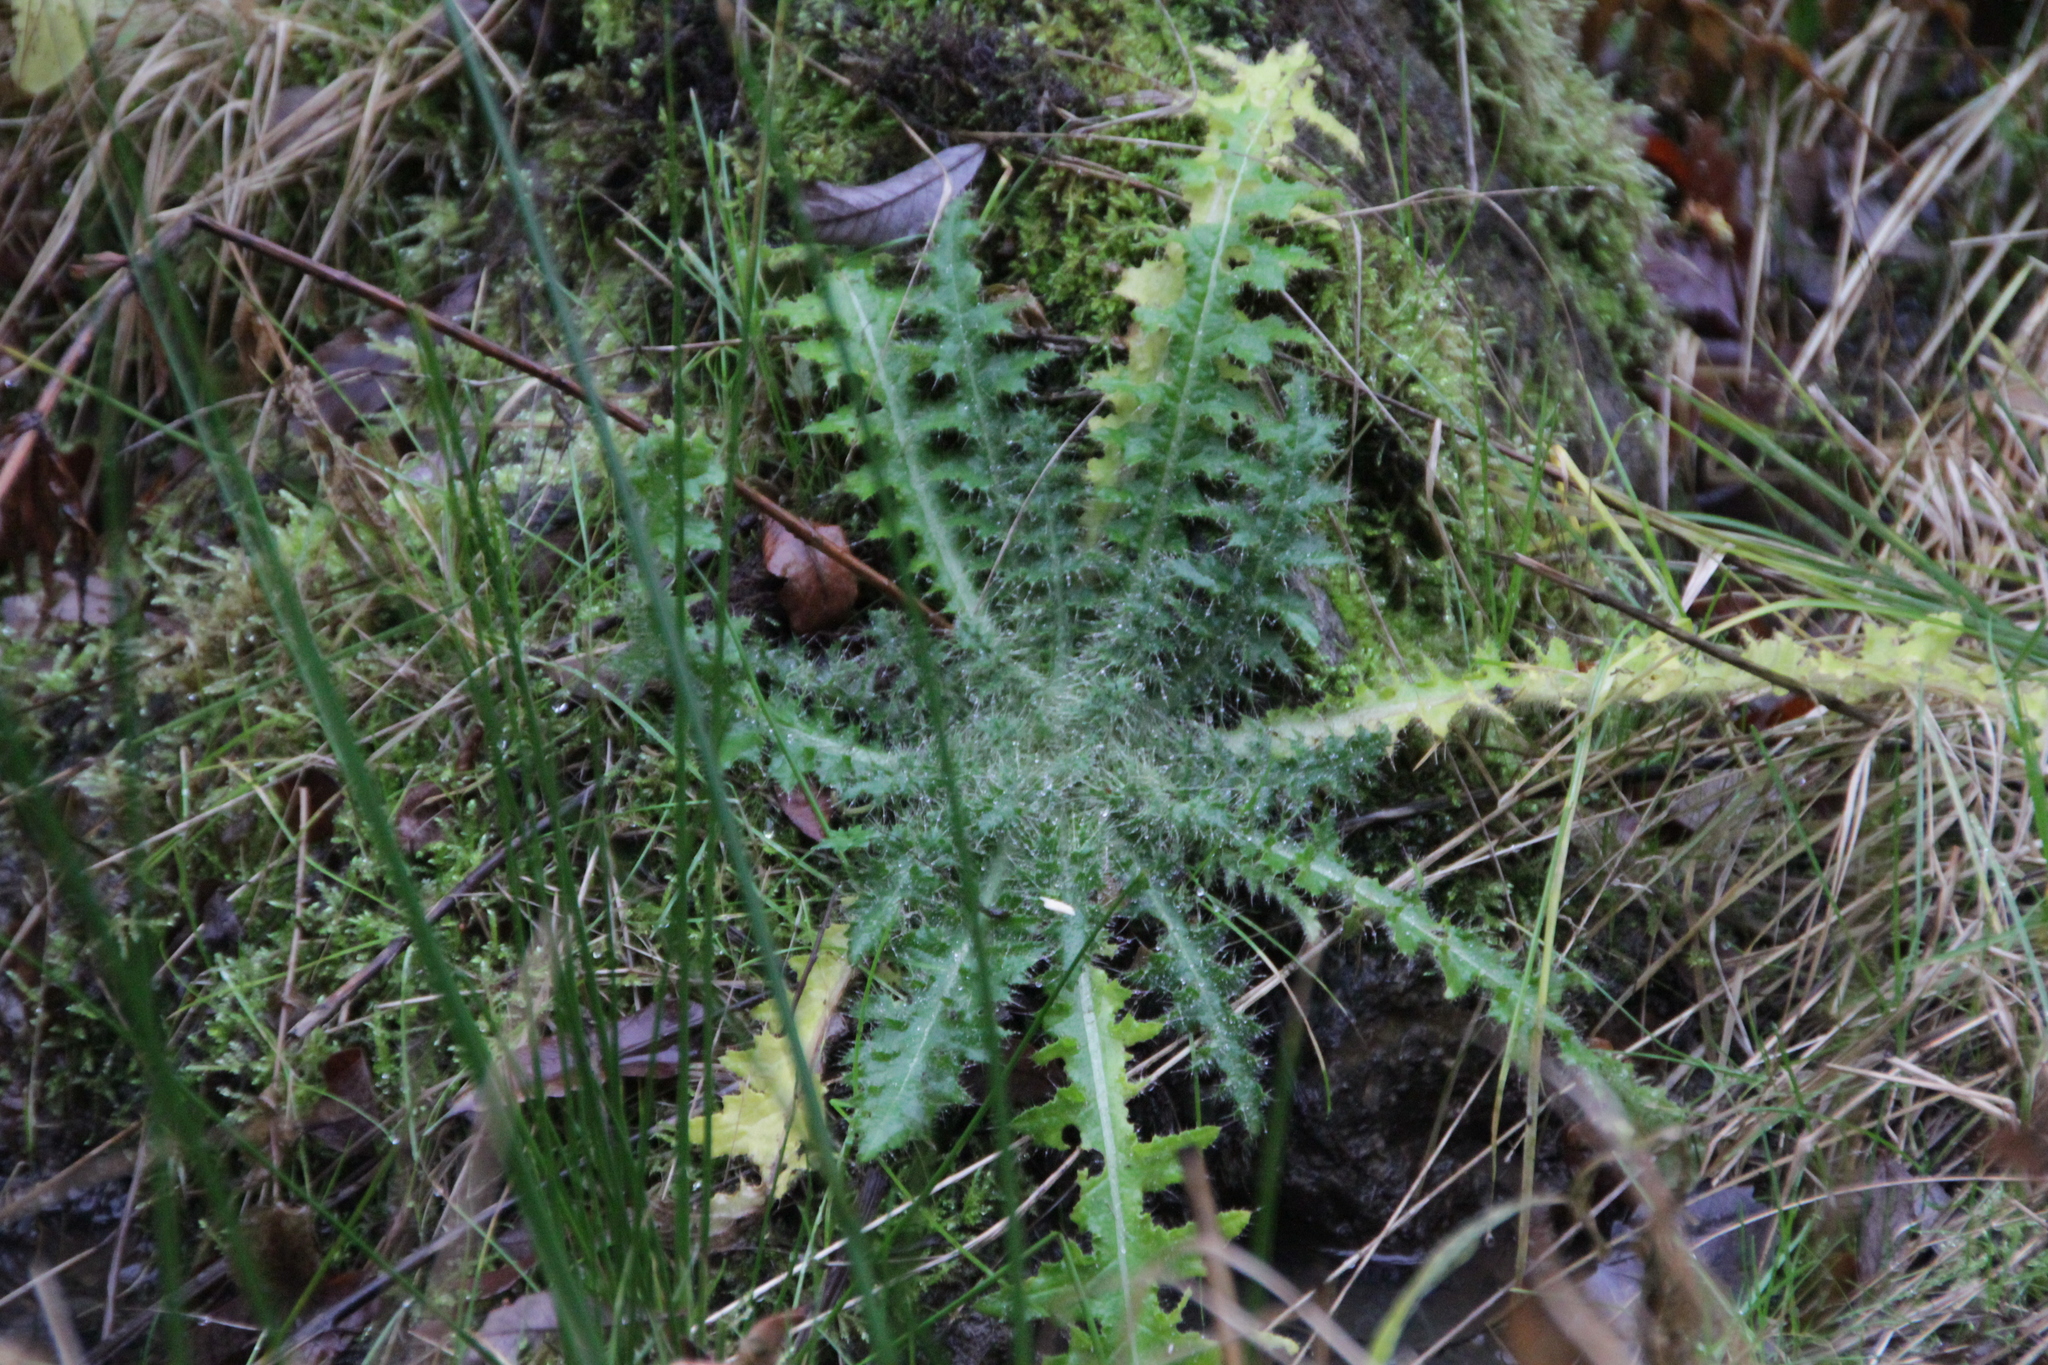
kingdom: Plantae
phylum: Tracheophyta
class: Magnoliopsida
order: Asterales
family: Asteraceae
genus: Cirsium
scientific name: Cirsium palustre
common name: Marsh thistle
